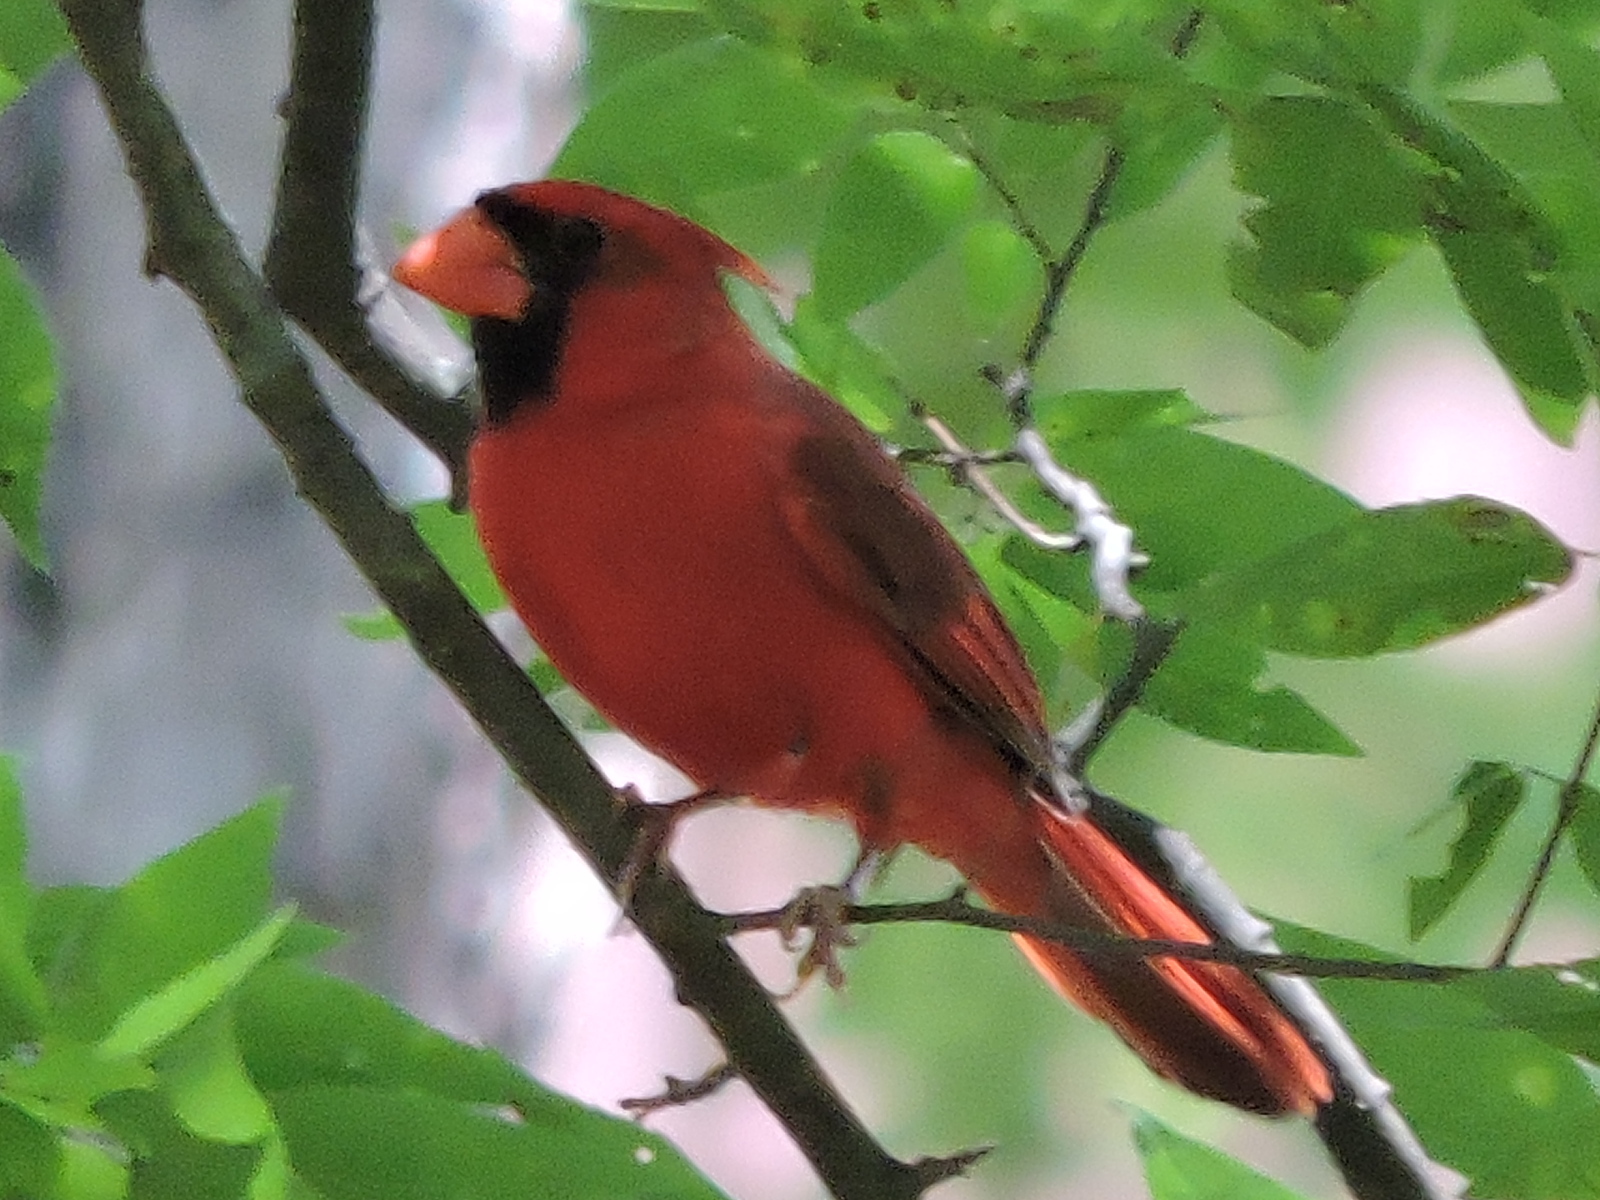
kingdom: Animalia
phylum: Chordata
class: Aves
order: Passeriformes
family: Cardinalidae
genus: Cardinalis
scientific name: Cardinalis cardinalis
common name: Northern cardinal
